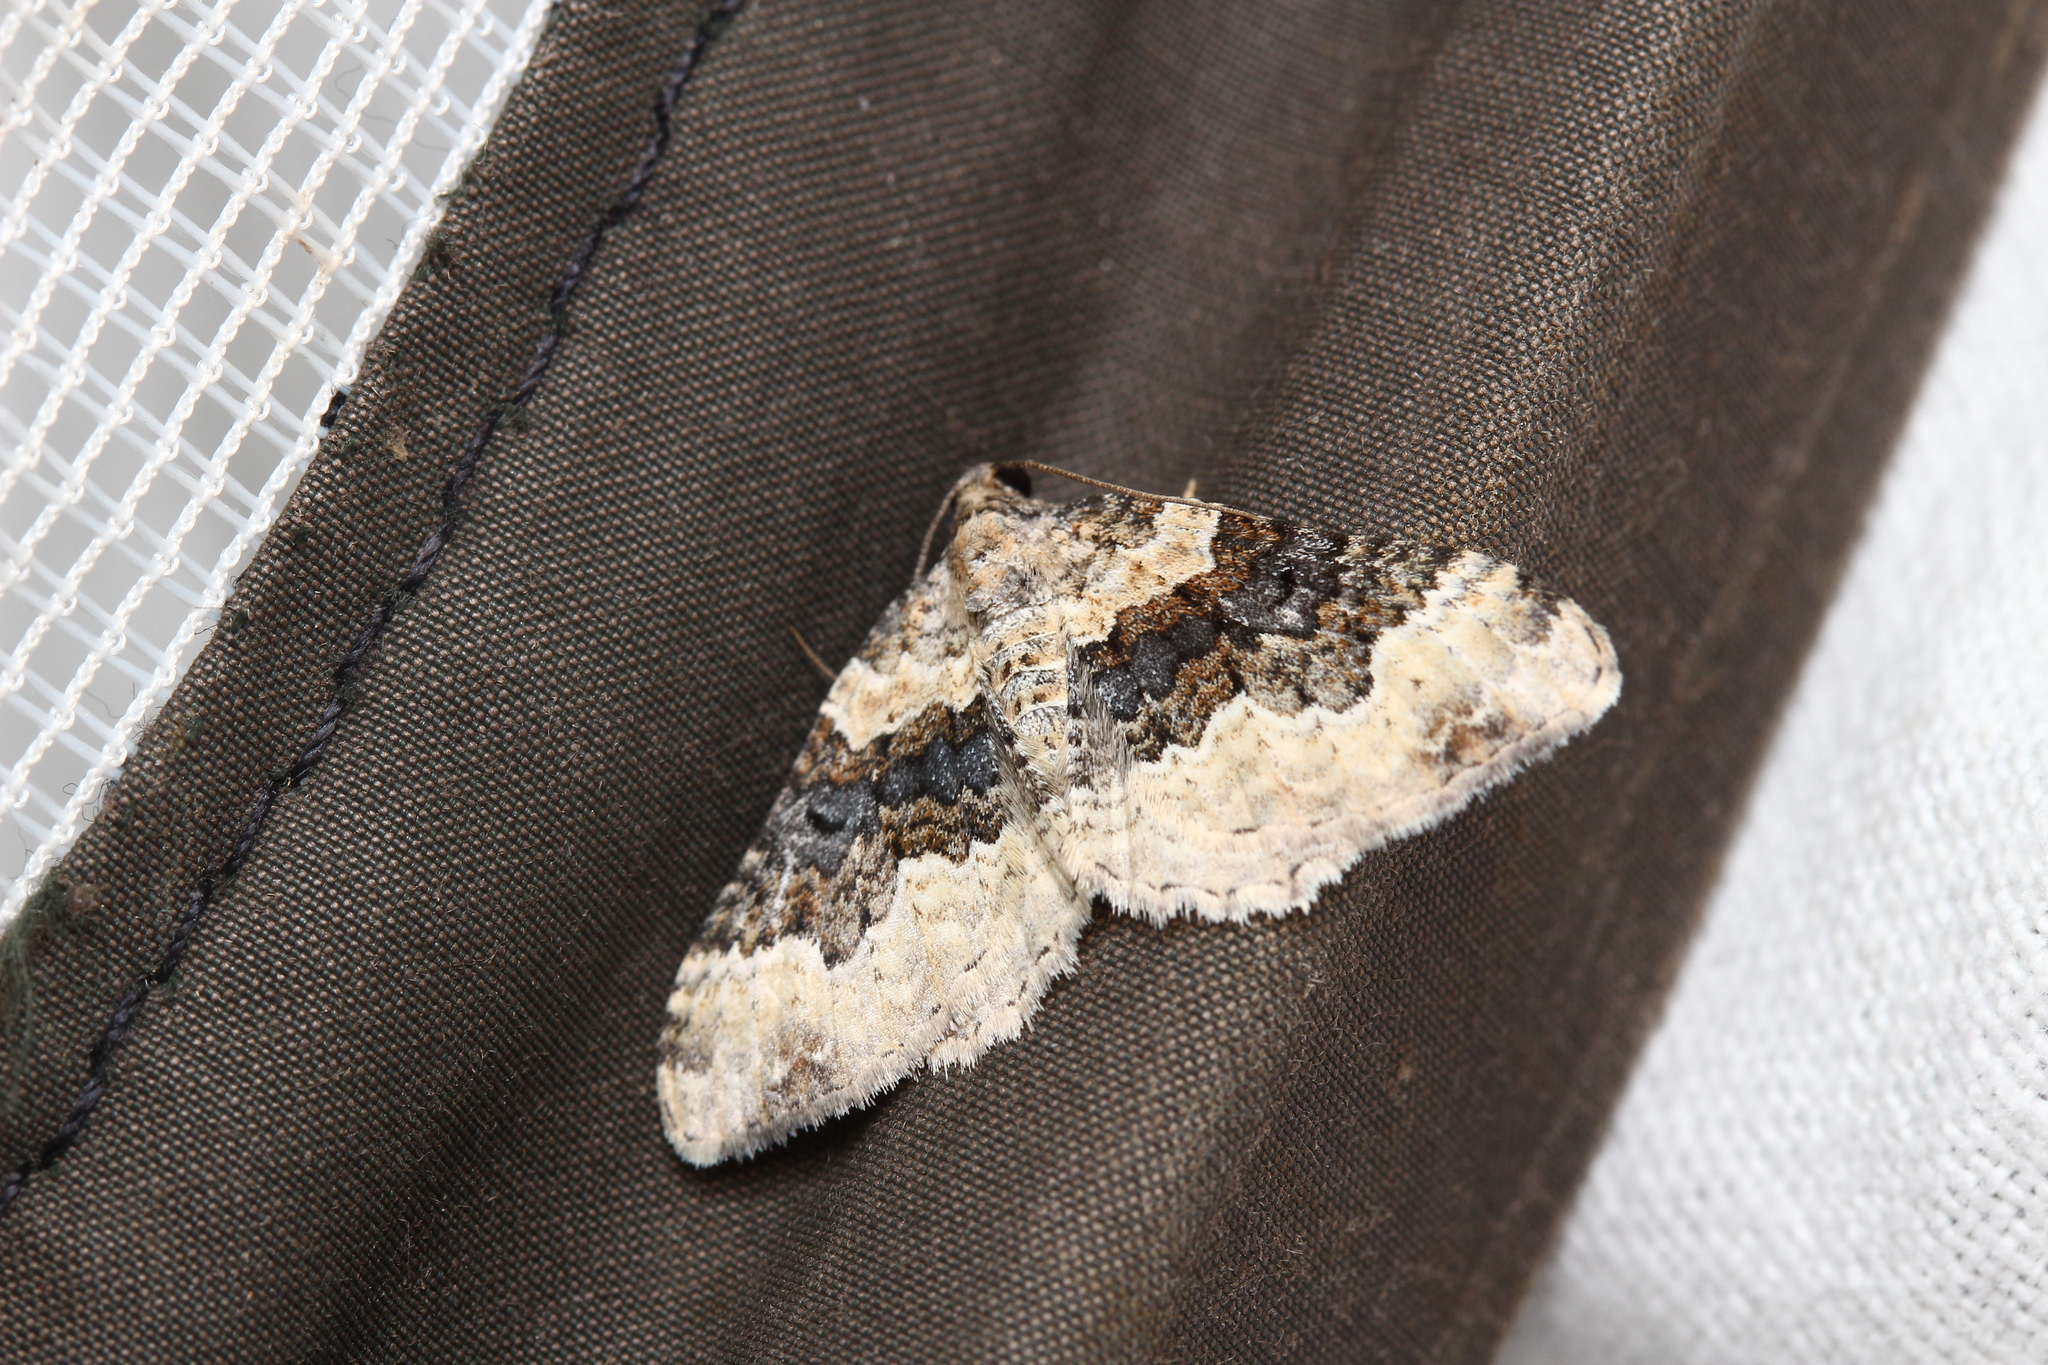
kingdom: Animalia
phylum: Arthropoda
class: Insecta
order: Lepidoptera
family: Geometridae
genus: Epirrhoe
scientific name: Epirrhoe galiata
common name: Galium carpet
